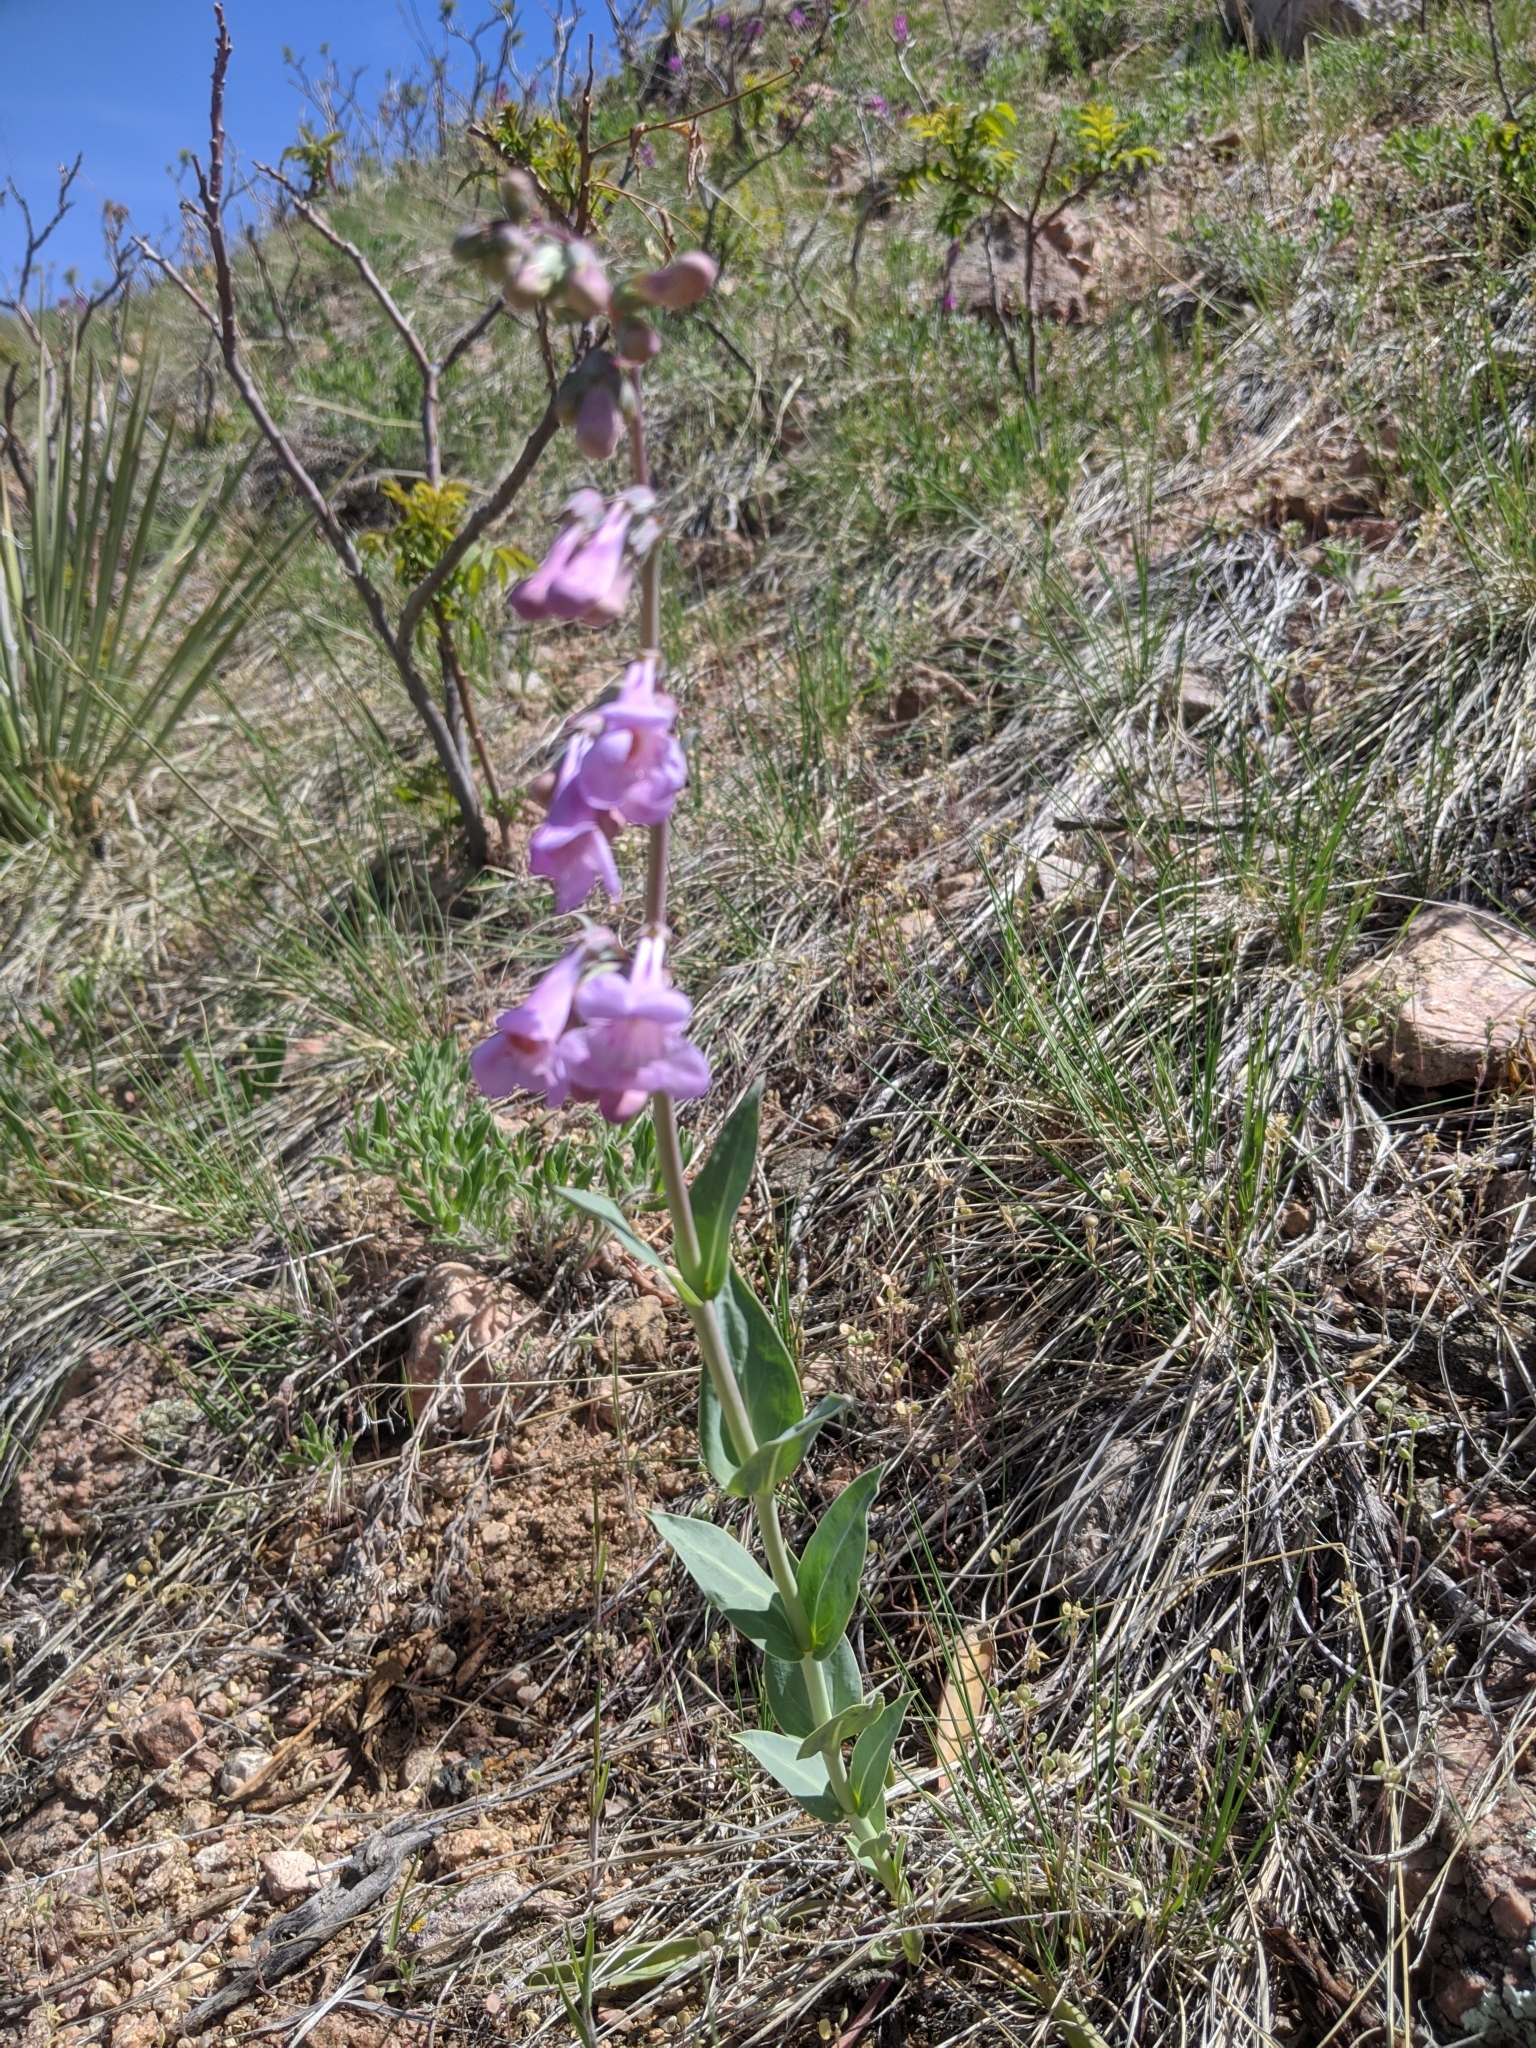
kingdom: Plantae
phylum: Tracheophyta
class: Magnoliopsida
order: Lamiales
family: Plantaginaceae
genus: Penstemon
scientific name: Penstemon secundiflorus
